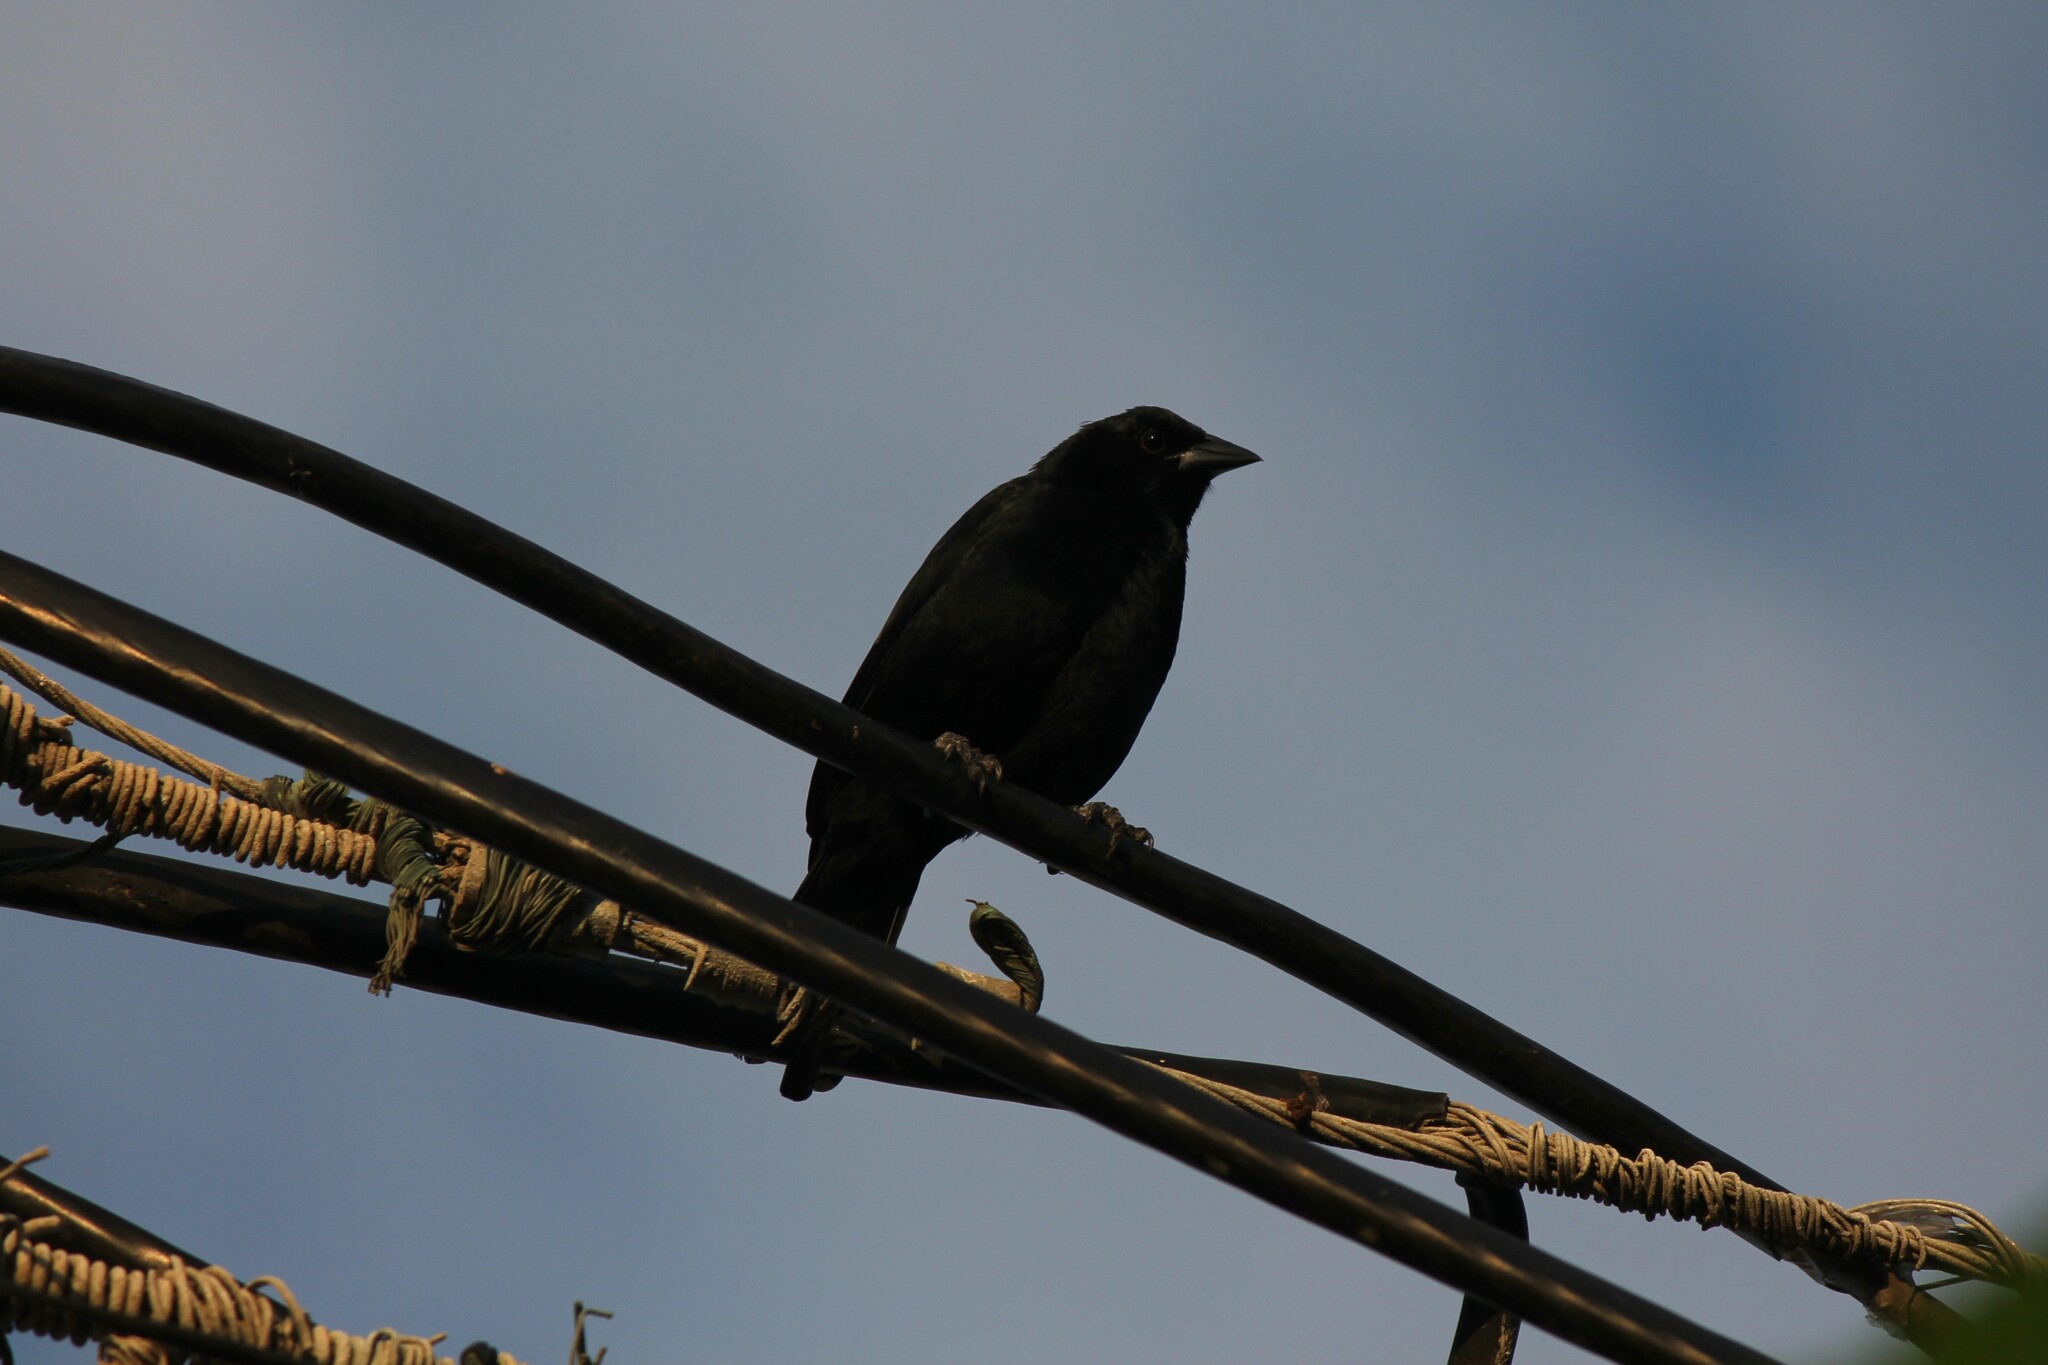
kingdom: Animalia
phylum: Chordata
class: Aves
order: Passeriformes
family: Icteridae
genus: Dives
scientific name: Dives warczewiczi
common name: Scrub blackbird
